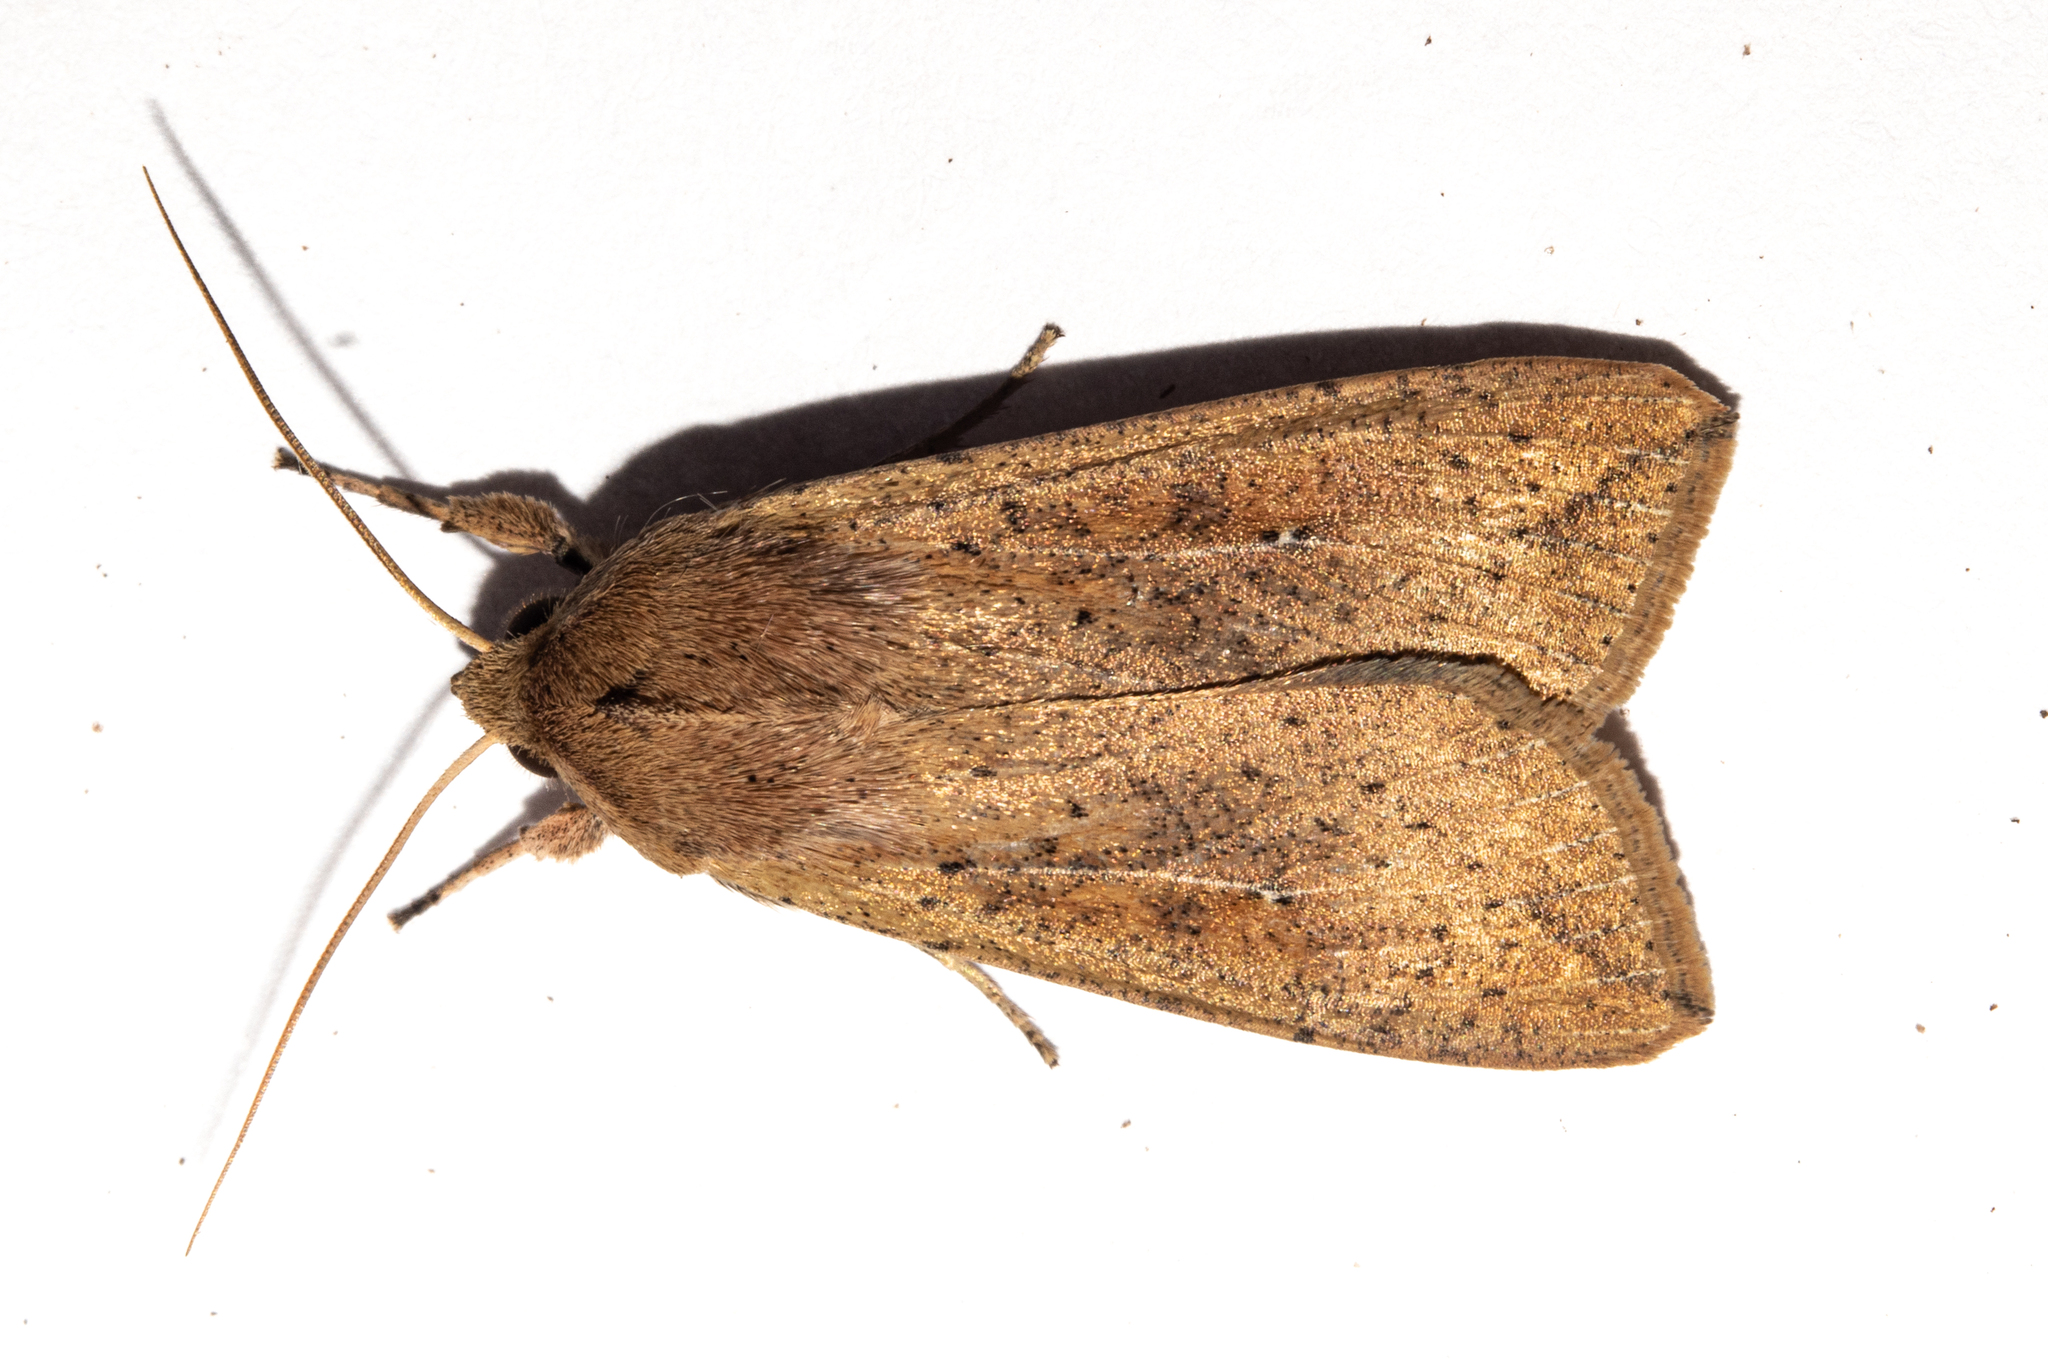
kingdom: Animalia
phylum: Arthropoda
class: Insecta
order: Lepidoptera
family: Noctuidae
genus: Mythimna
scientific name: Mythimna separata
